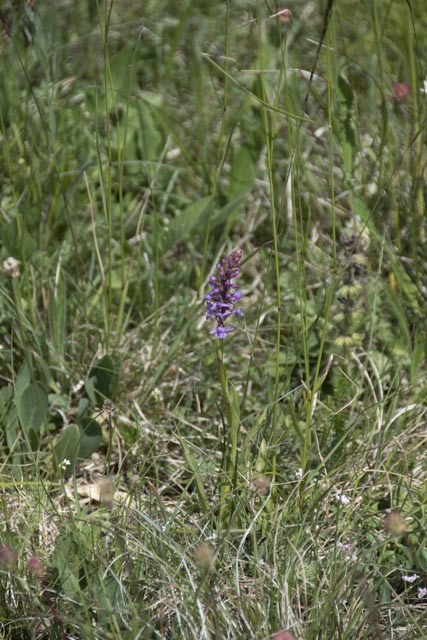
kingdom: Plantae
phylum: Tracheophyta
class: Liliopsida
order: Asparagales
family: Orchidaceae
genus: Gymnadenia
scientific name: Gymnadenia conopsea
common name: Fragrant orchid
